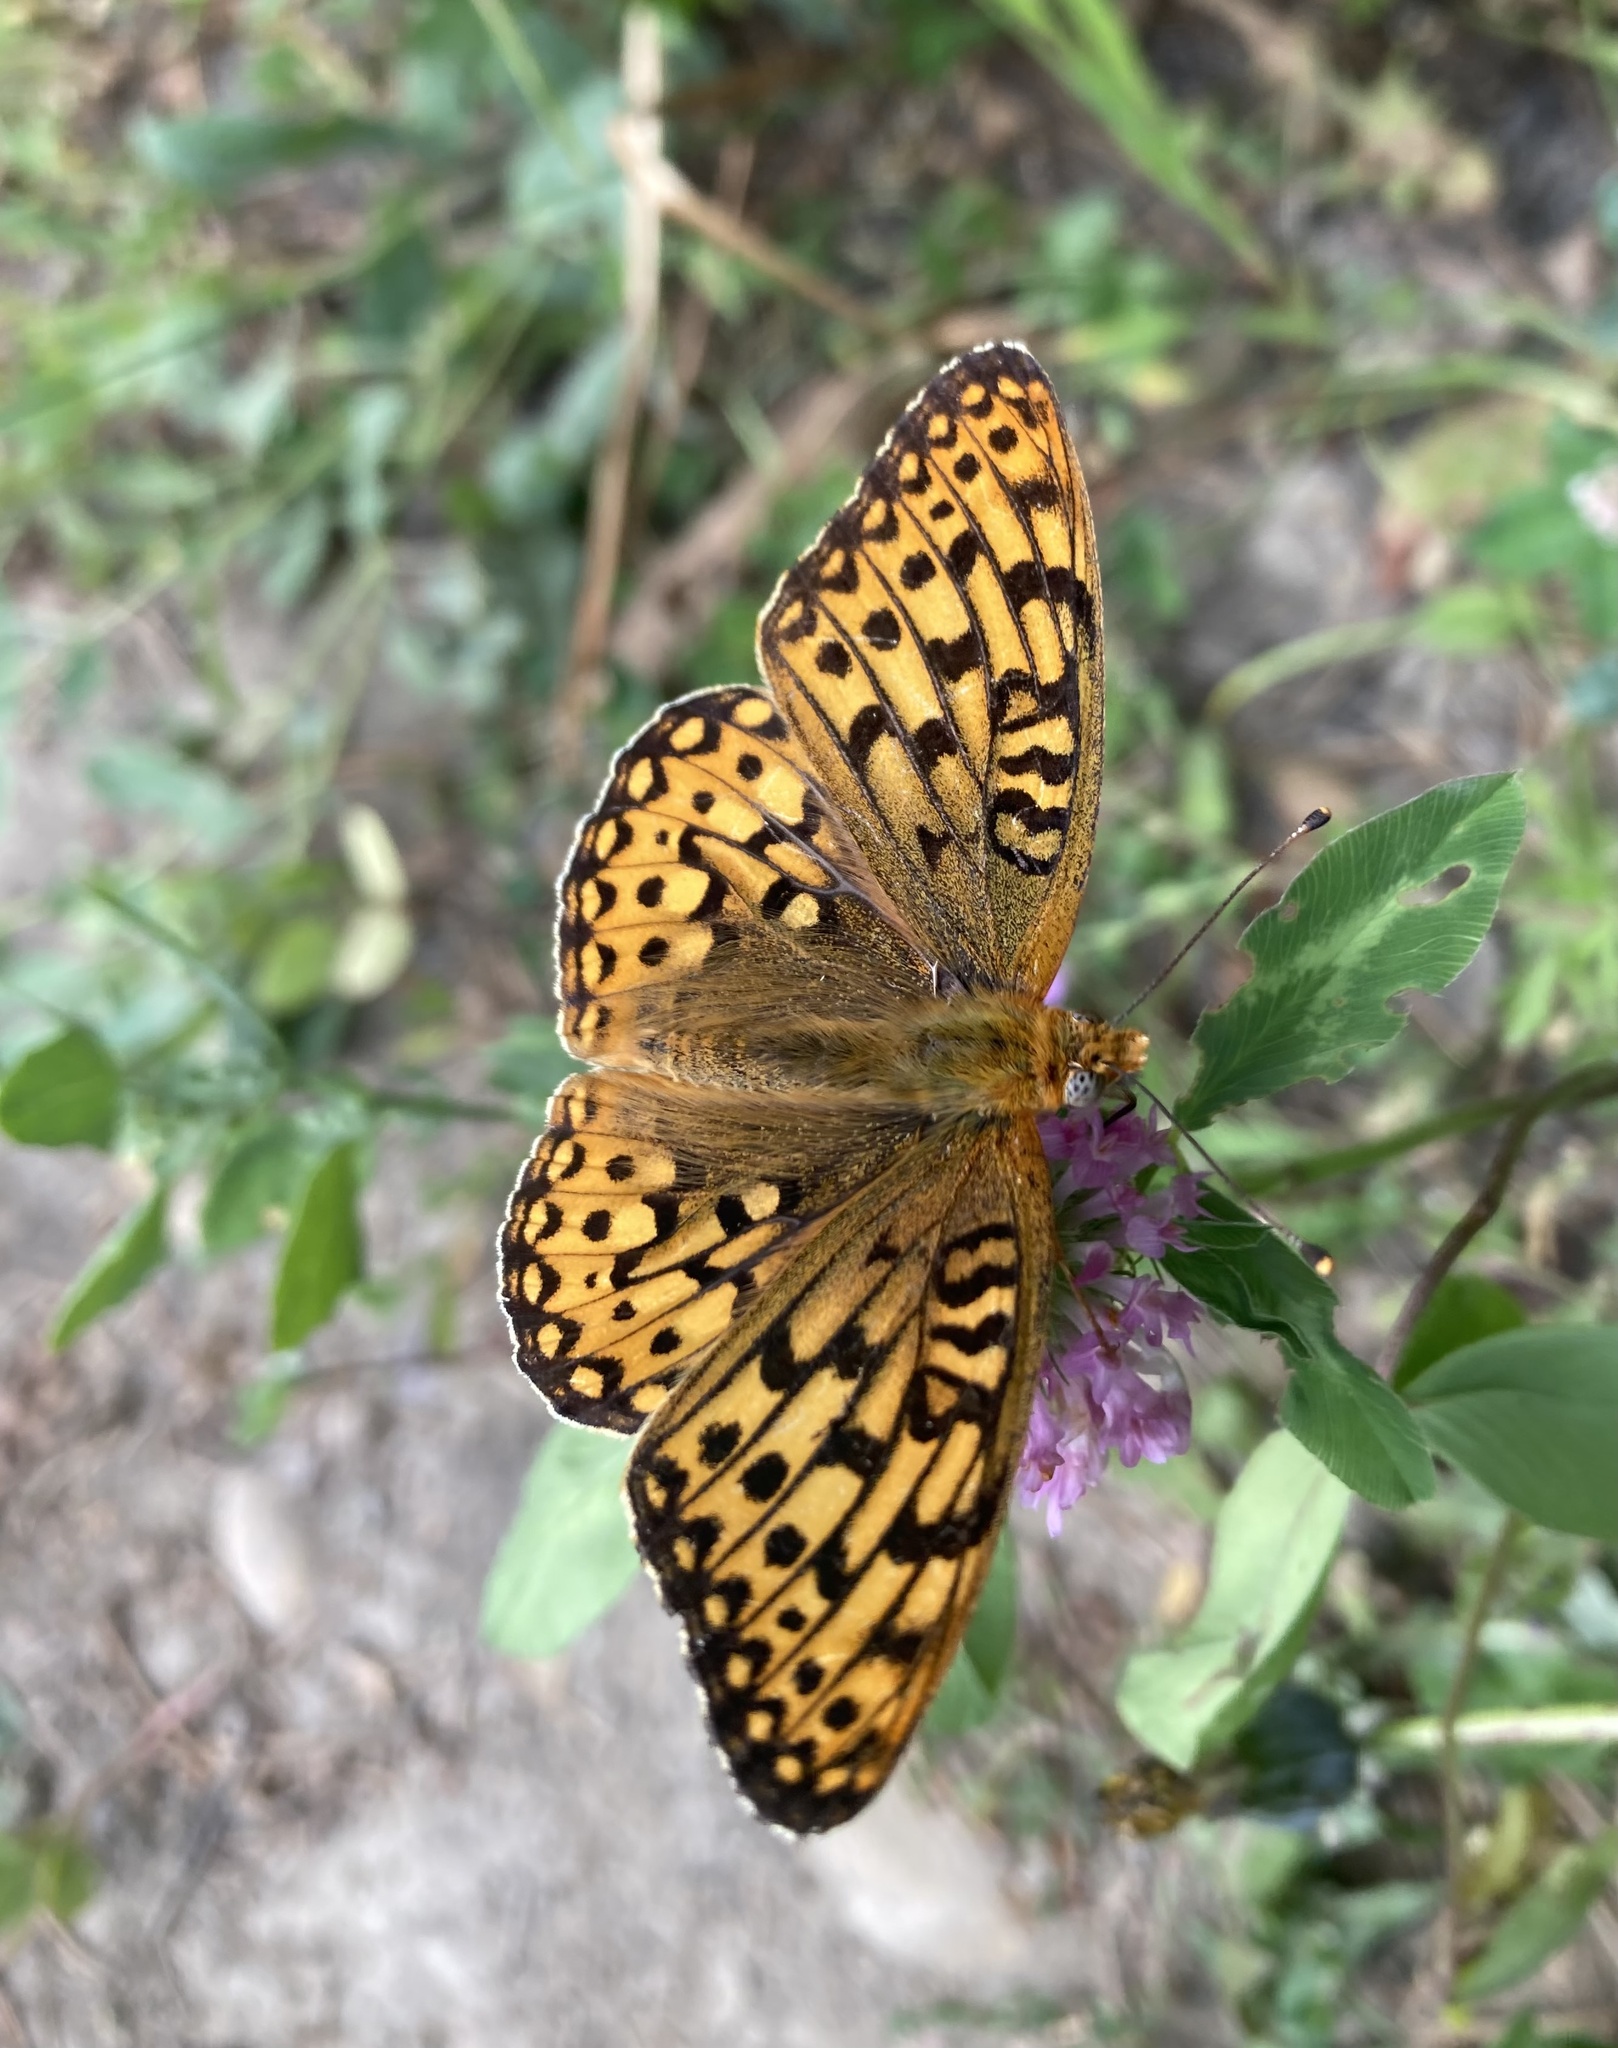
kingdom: Animalia
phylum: Arthropoda
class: Insecta
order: Lepidoptera
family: Nymphalidae
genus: Speyeria
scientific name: Speyeria callippe
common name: Callippe fritillary
